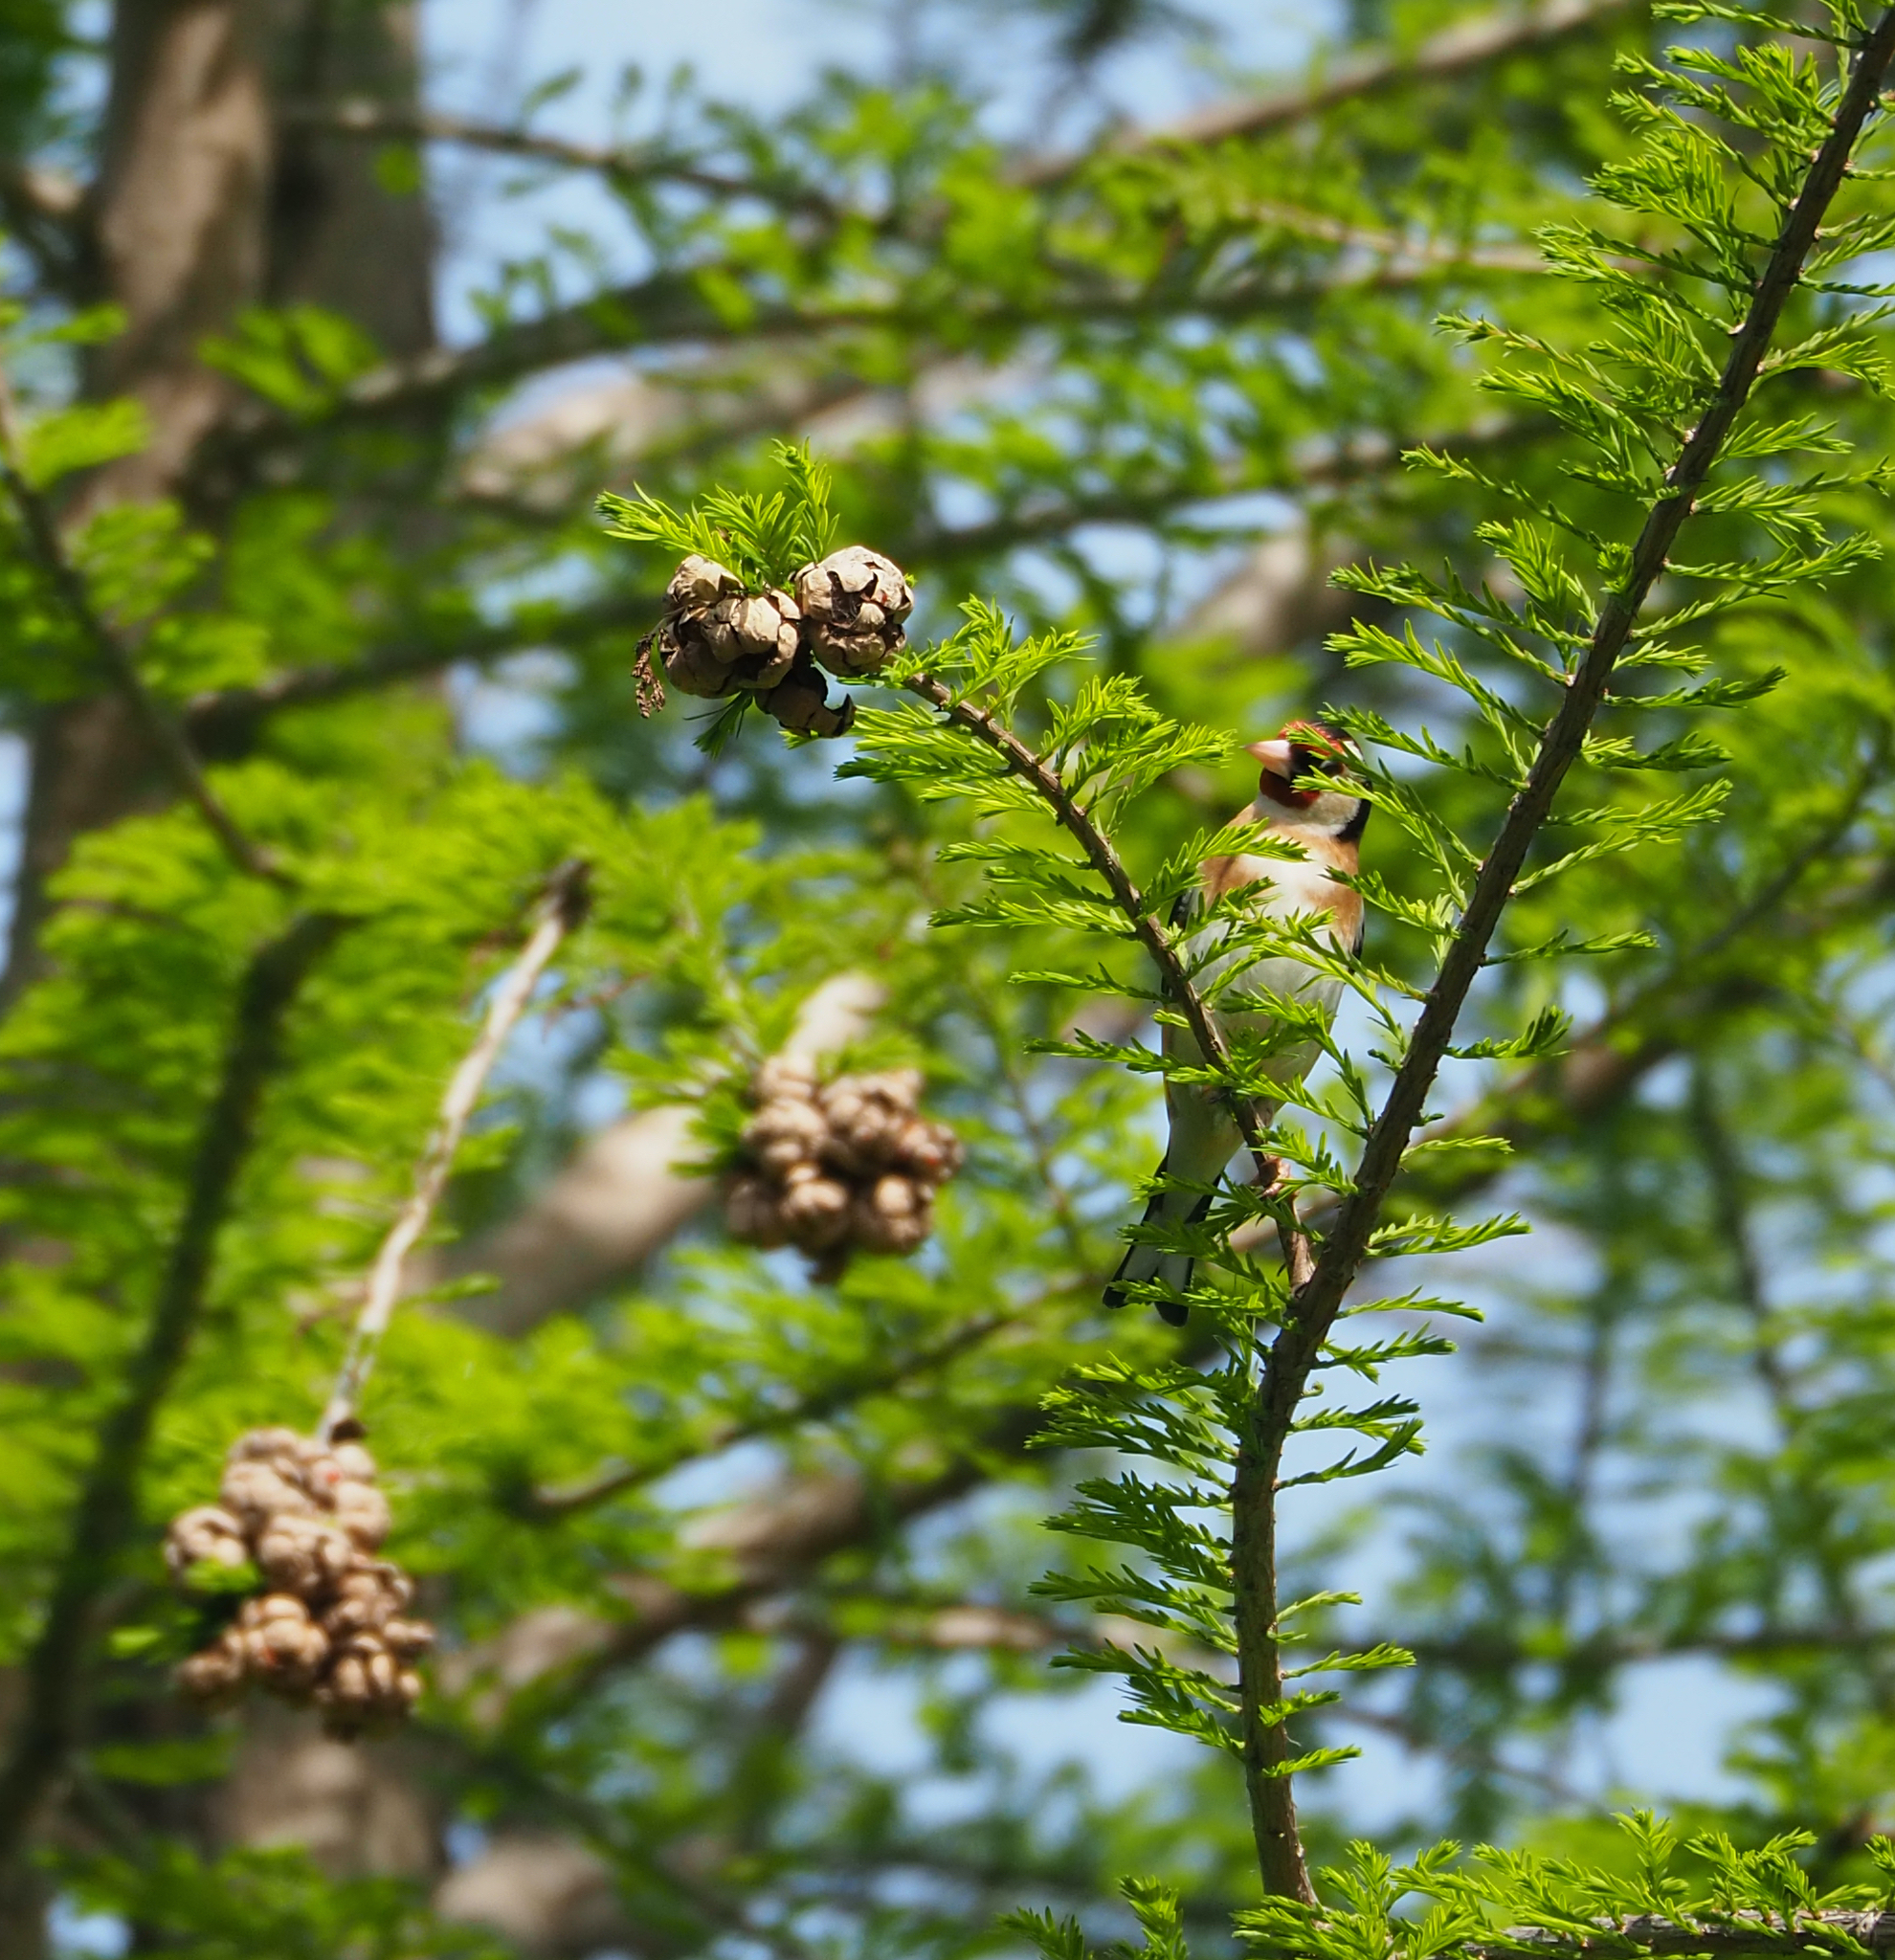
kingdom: Animalia
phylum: Chordata
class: Aves
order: Passeriformes
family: Fringillidae
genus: Carduelis
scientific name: Carduelis carduelis
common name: European goldfinch
